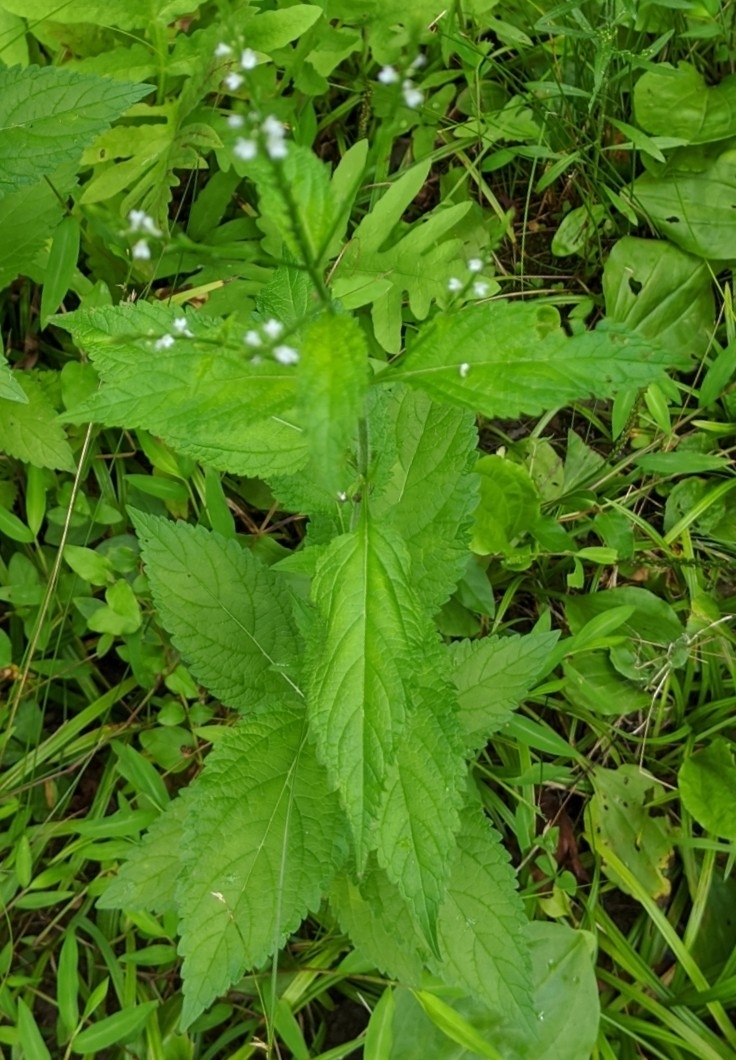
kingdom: Plantae
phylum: Tracheophyta
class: Magnoliopsida
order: Lamiales
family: Verbenaceae
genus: Verbena
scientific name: Verbena urticifolia
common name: Nettle-leaved vervain
